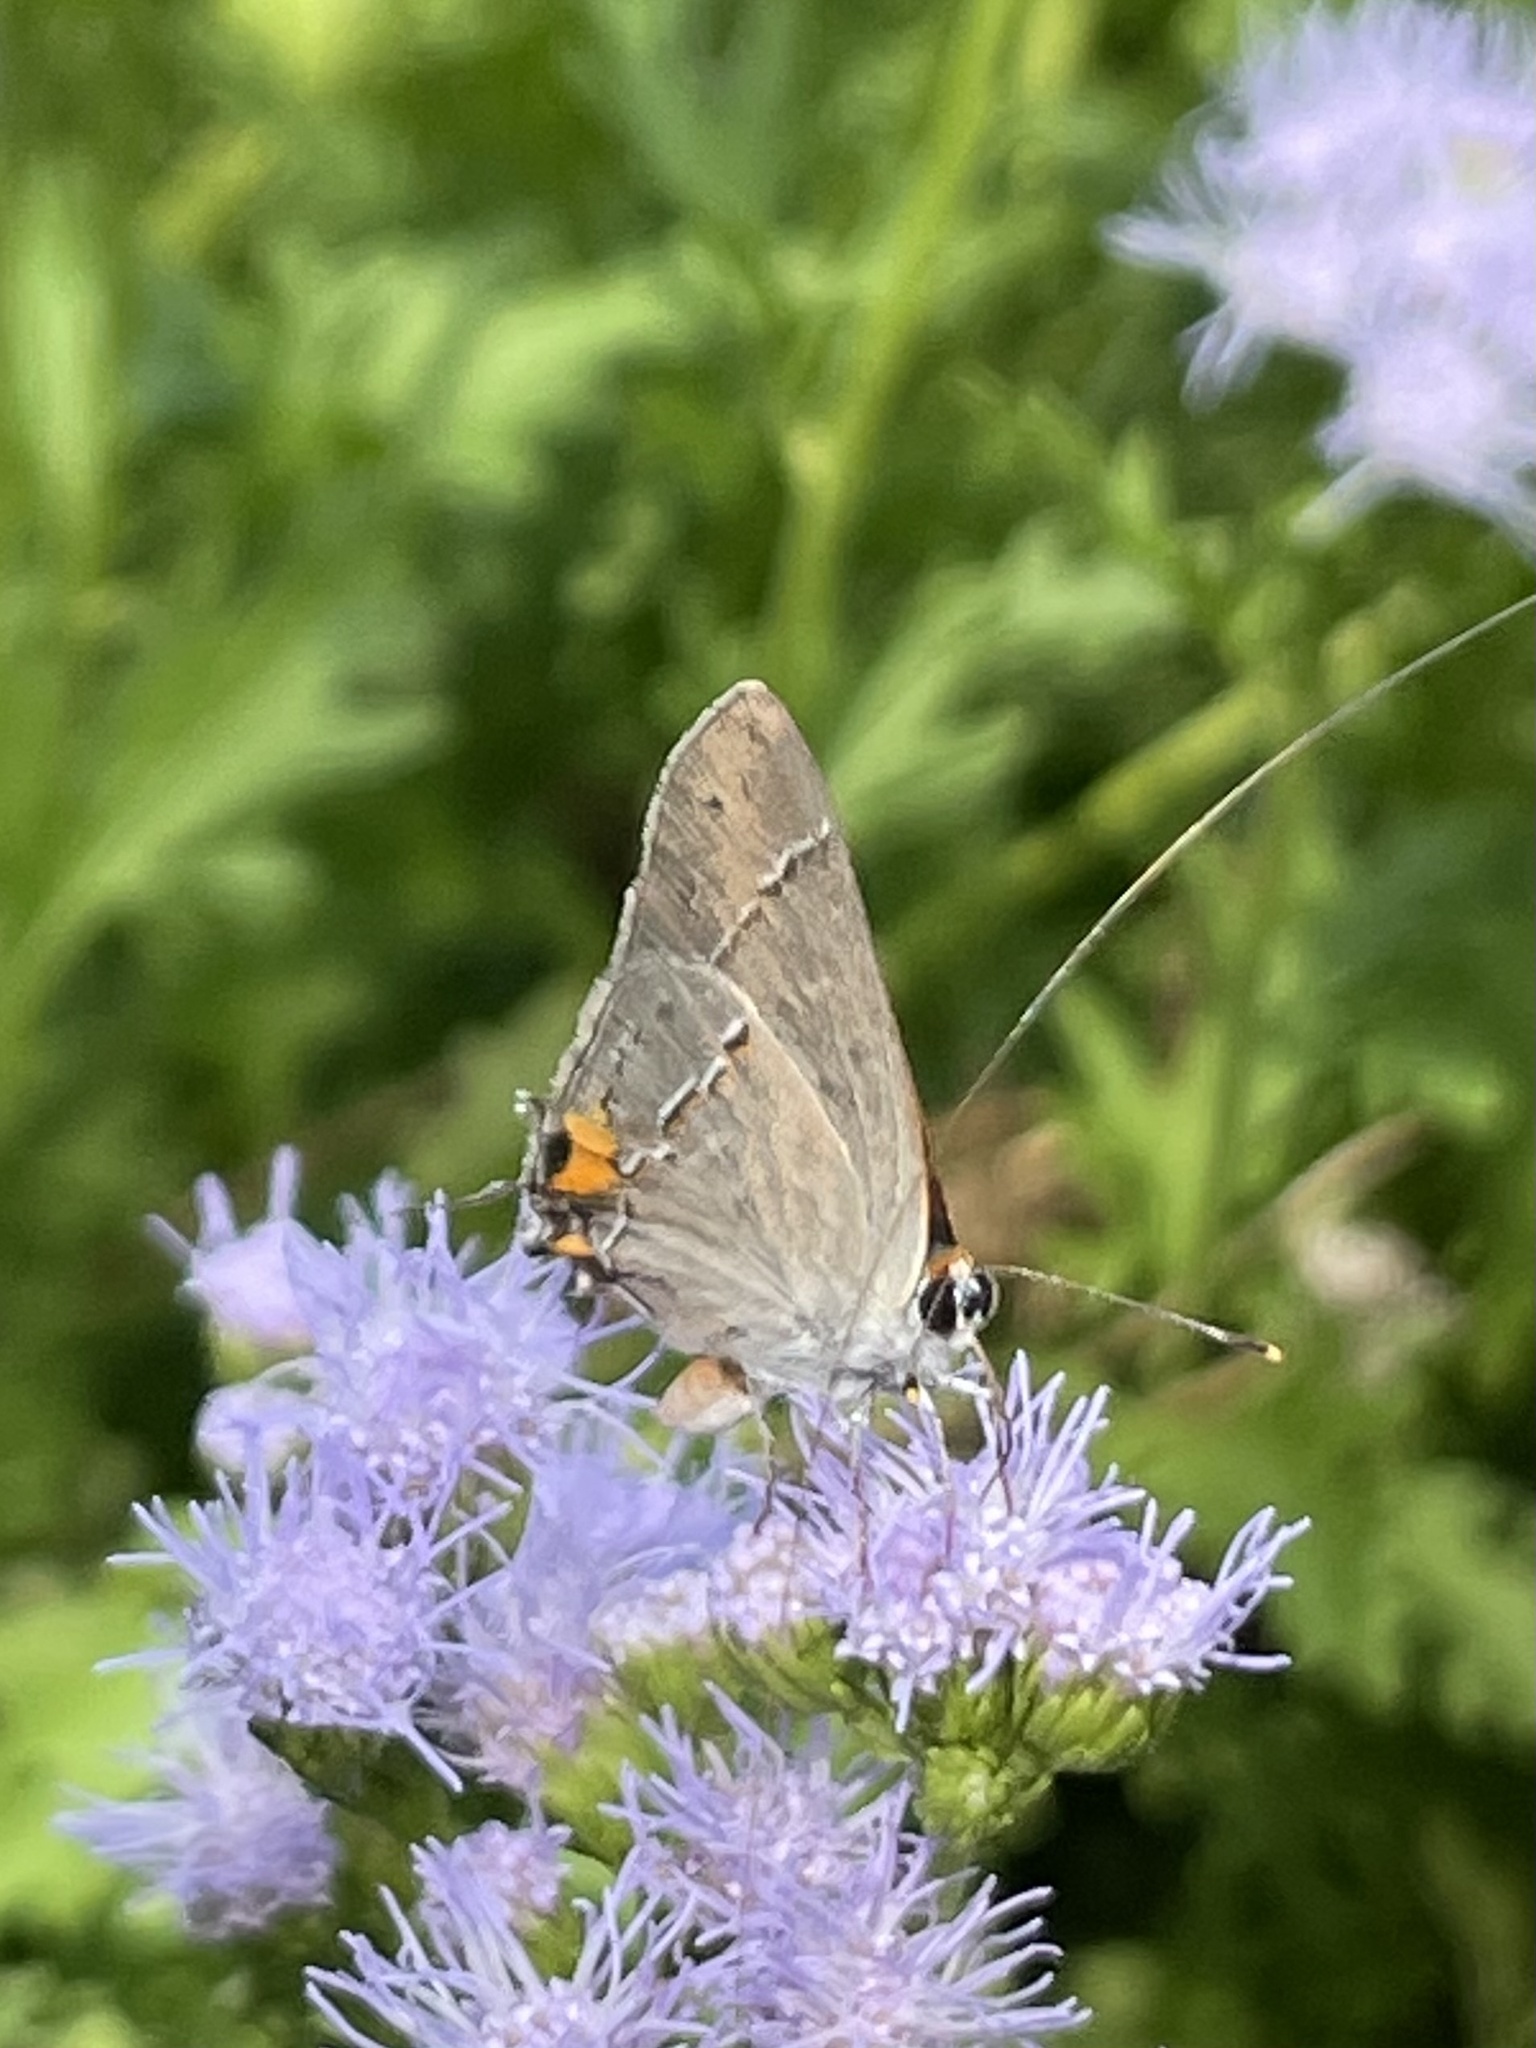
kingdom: Animalia
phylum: Arthropoda
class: Insecta
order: Lepidoptera
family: Lycaenidae
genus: Strymon
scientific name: Strymon melinus
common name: Gray hairstreak
